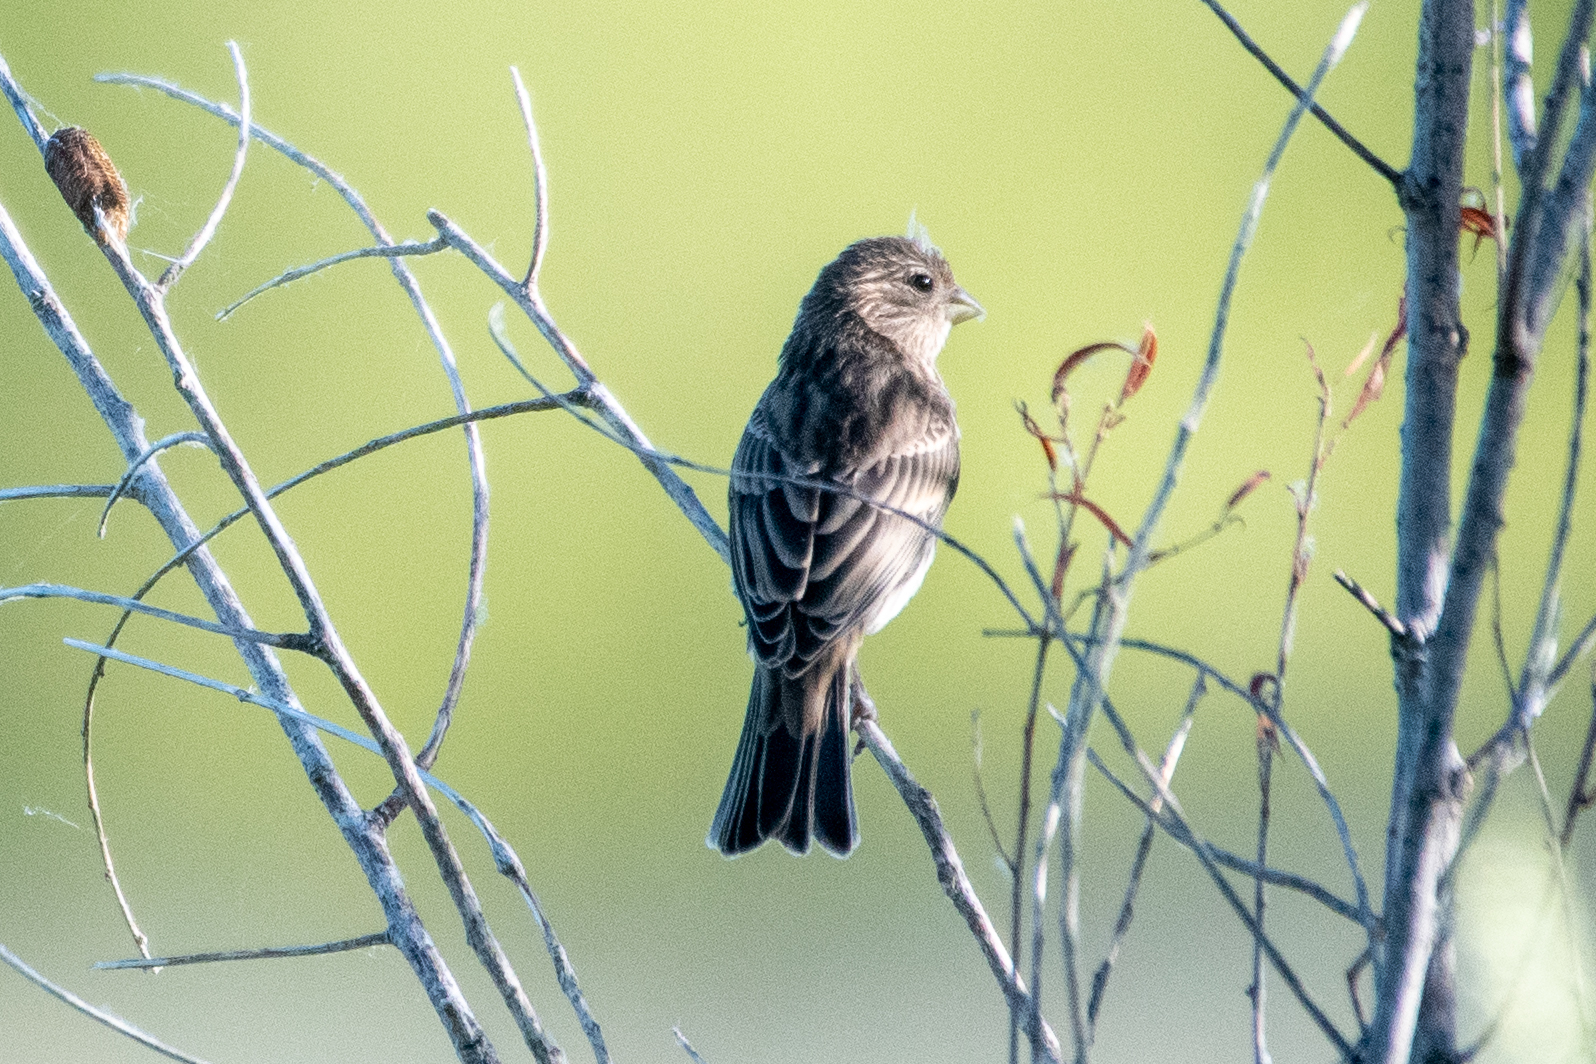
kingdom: Animalia
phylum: Chordata
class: Aves
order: Passeriformes
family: Fringillidae
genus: Haemorhous
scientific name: Haemorhous mexicanus
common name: House finch
